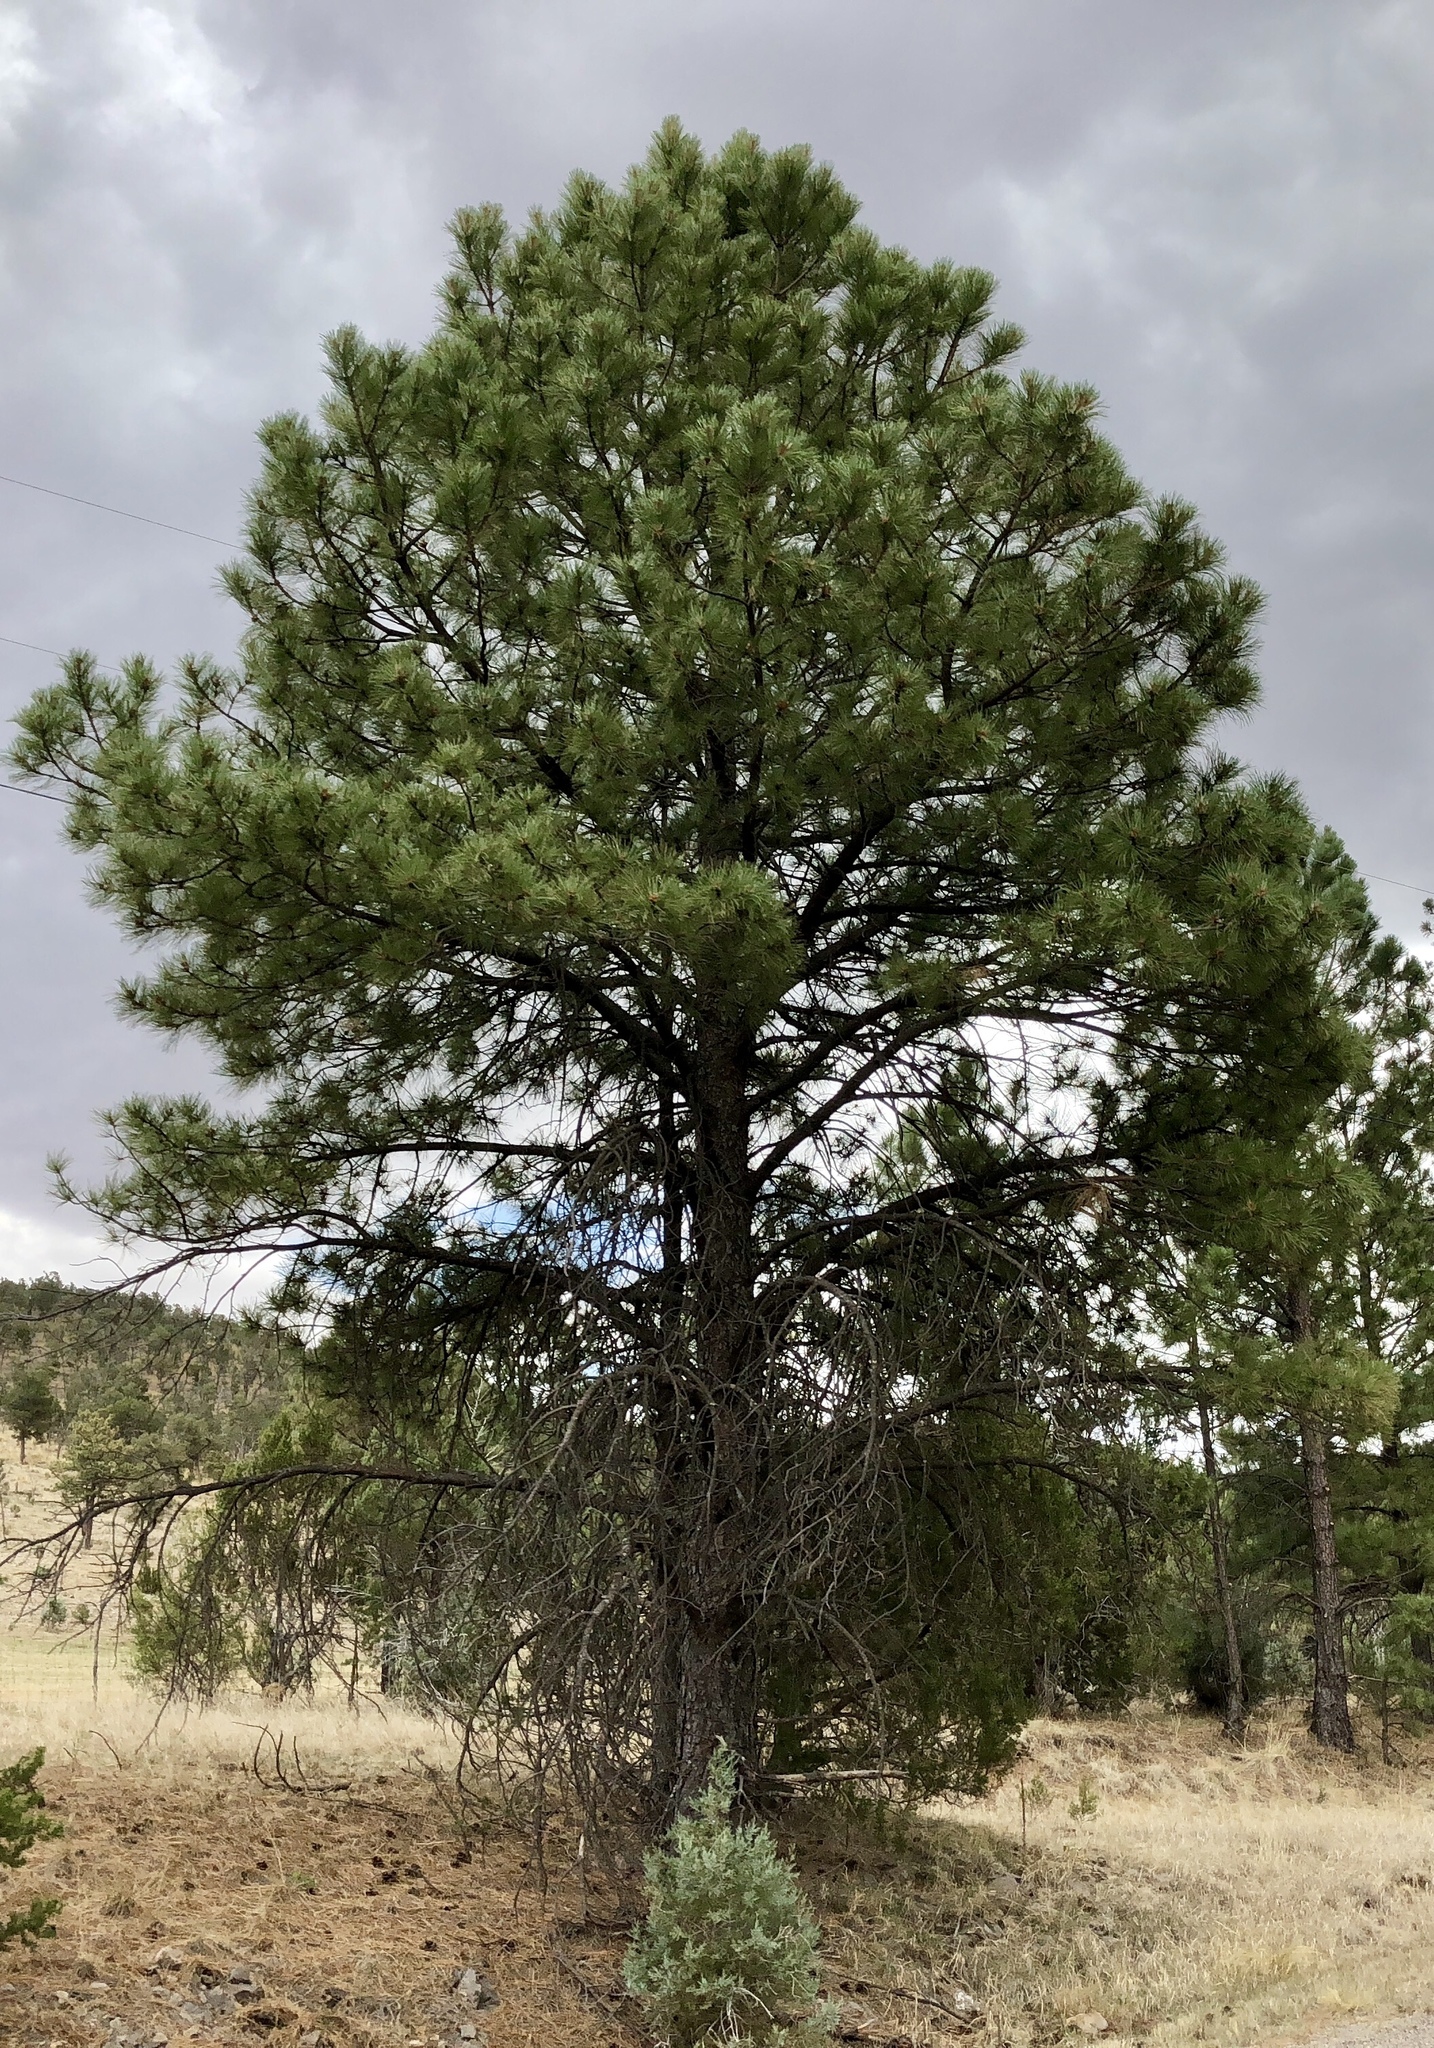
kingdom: Plantae
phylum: Tracheophyta
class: Pinopsida
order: Pinales
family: Pinaceae
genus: Pinus
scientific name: Pinus ponderosa
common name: Western yellow-pine
